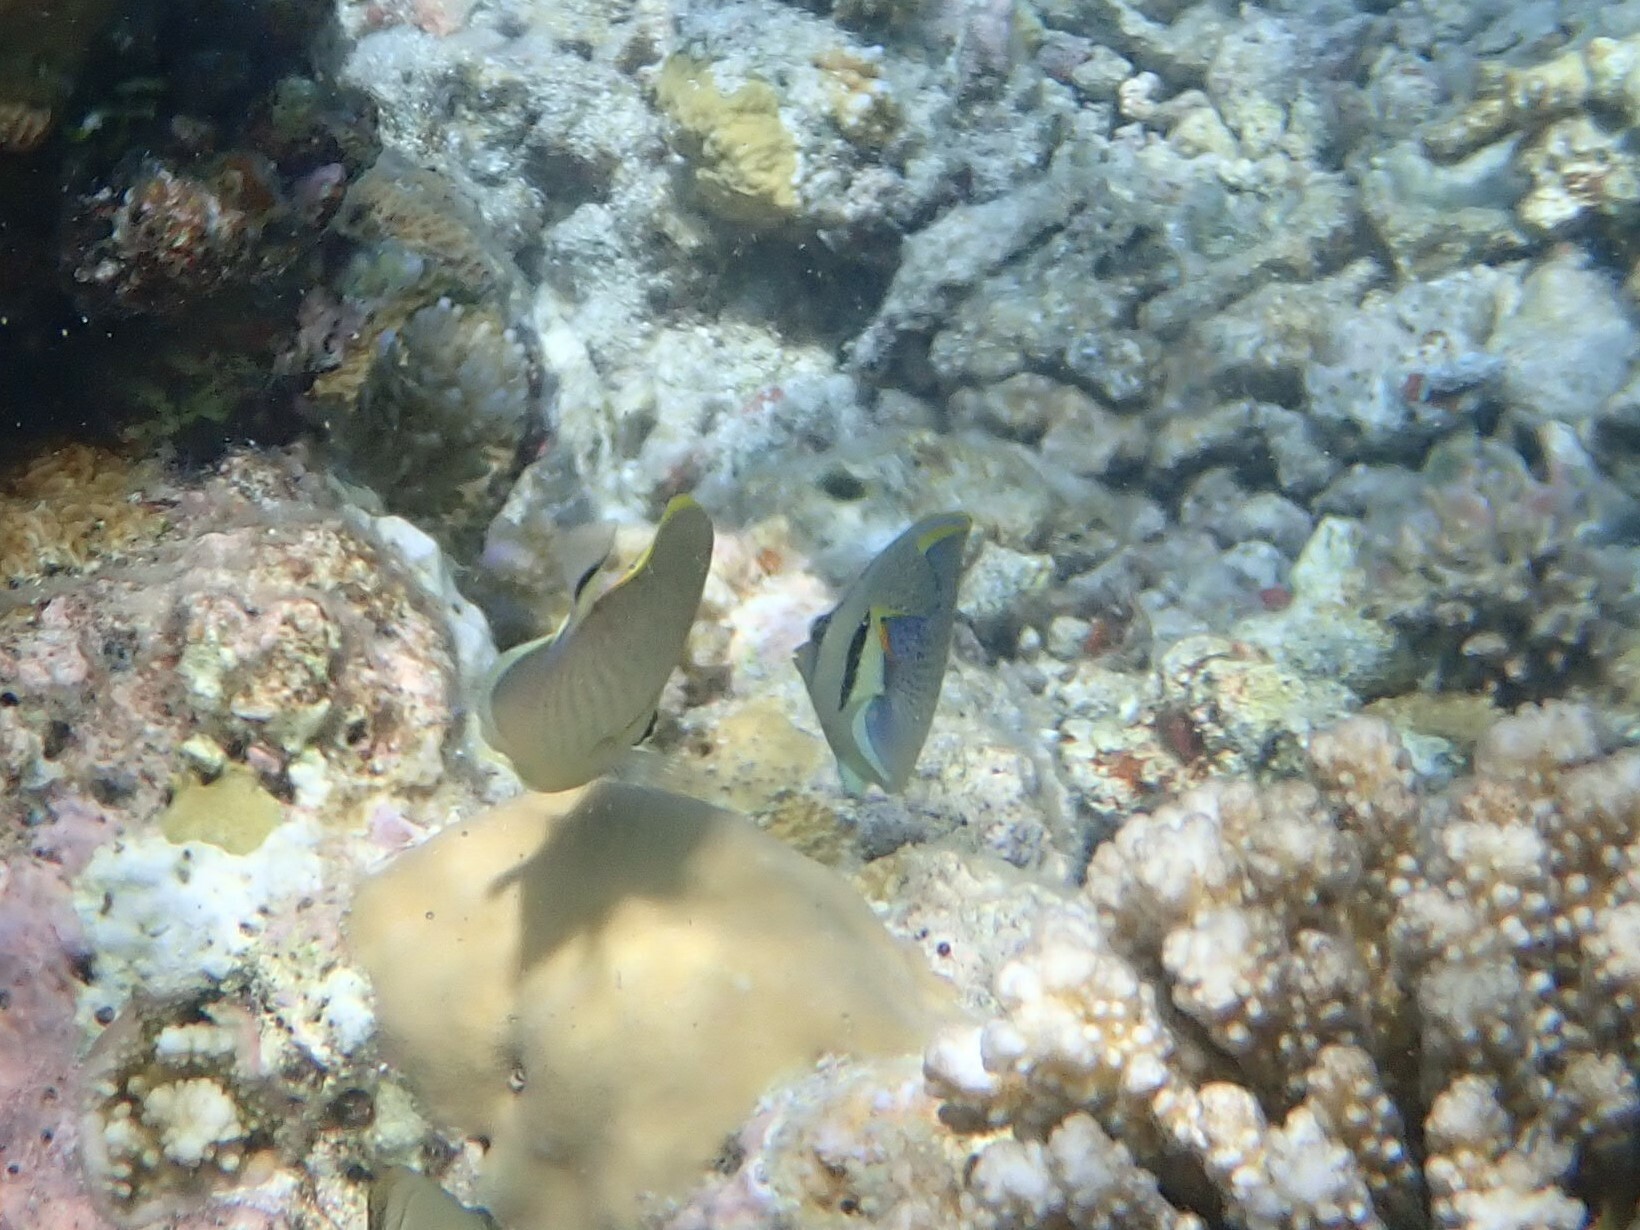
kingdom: Animalia
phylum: Chordata
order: Perciformes
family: Chaetodontidae
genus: Chaetodon
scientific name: Chaetodon guttatissimus
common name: Spotted butterflyfish
